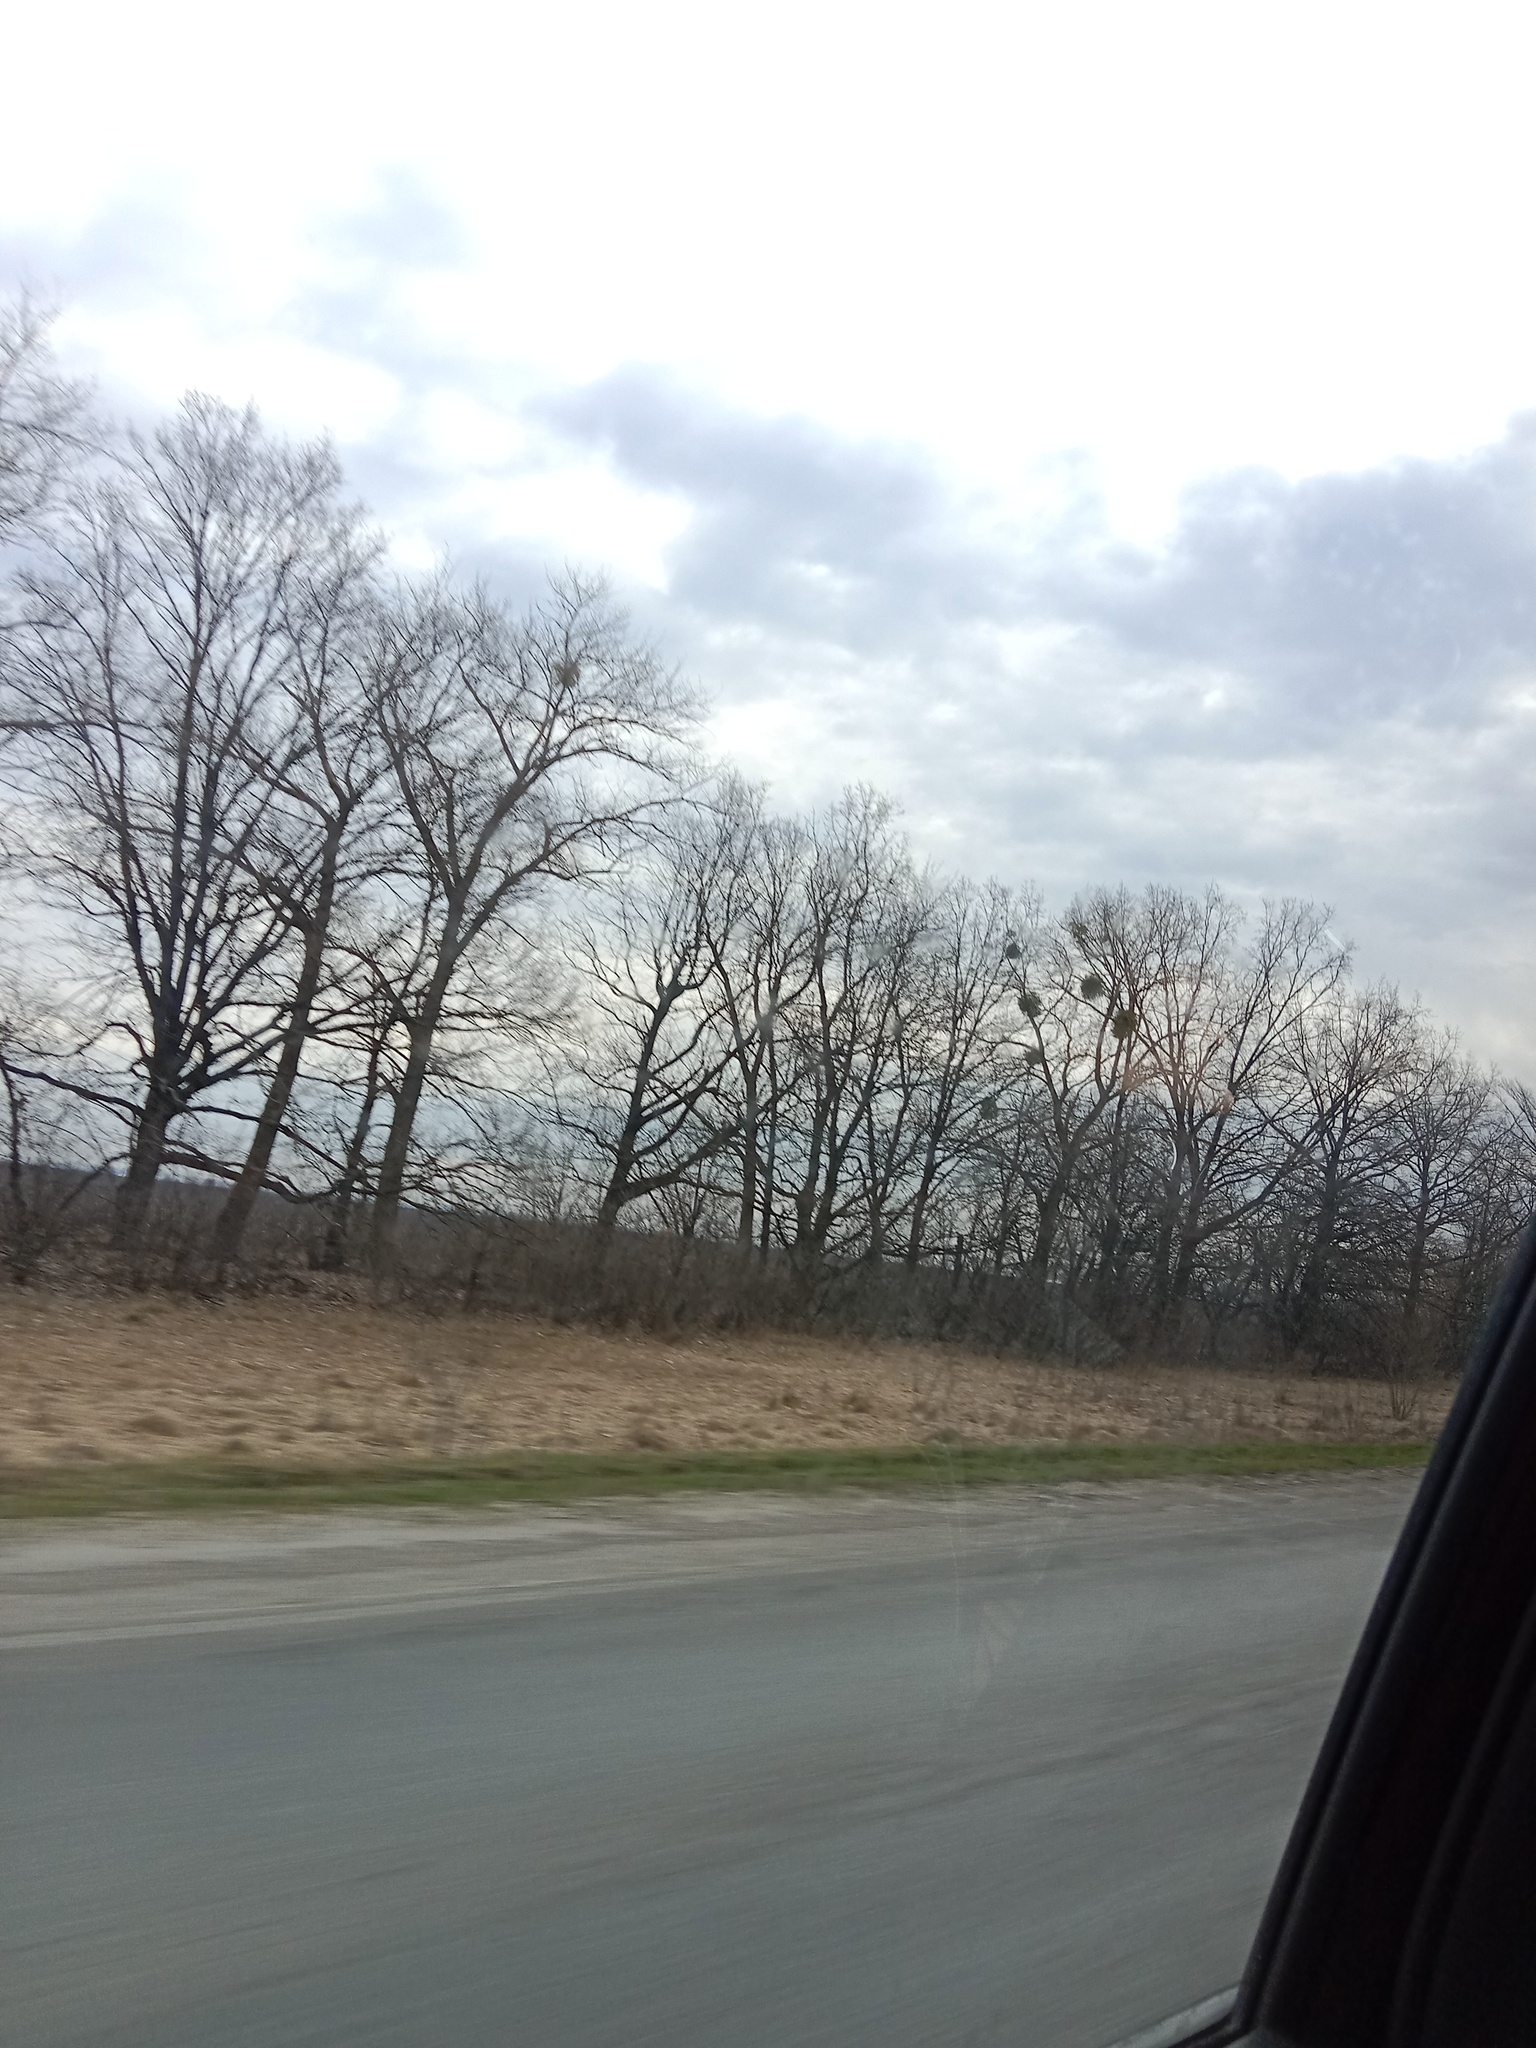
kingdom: Plantae
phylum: Tracheophyta
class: Magnoliopsida
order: Santalales
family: Viscaceae
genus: Viscum
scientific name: Viscum album
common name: Mistletoe
